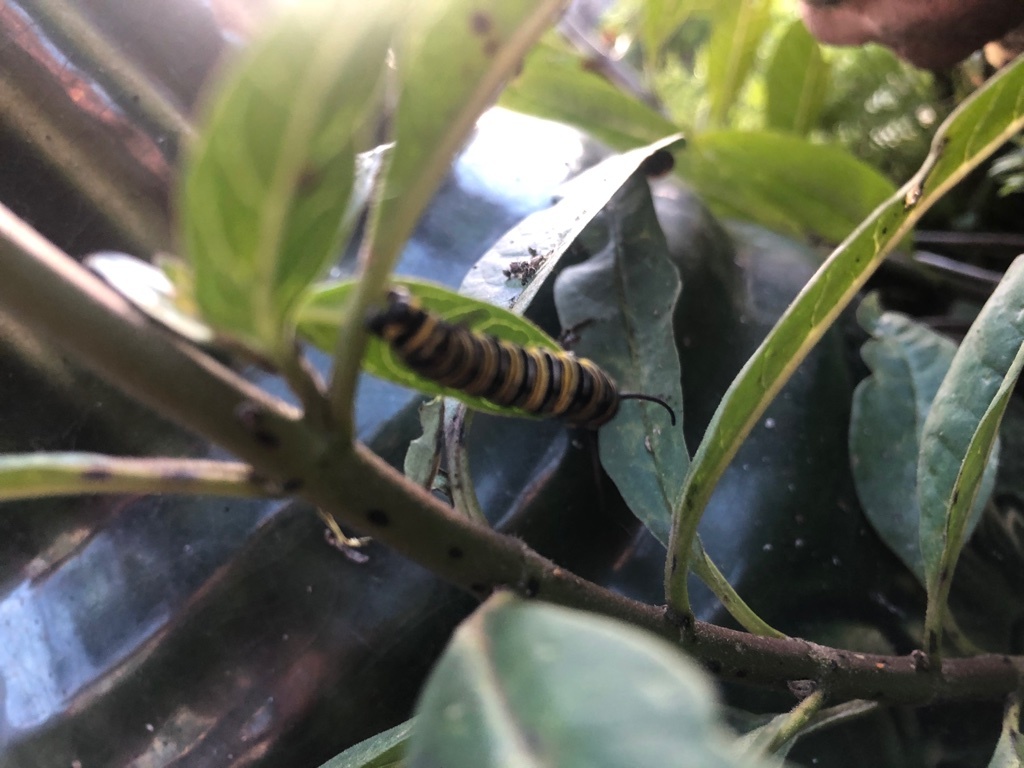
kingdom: Animalia
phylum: Arthropoda
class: Insecta
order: Lepidoptera
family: Nymphalidae
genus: Danaus
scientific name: Danaus plexippus
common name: Monarch
